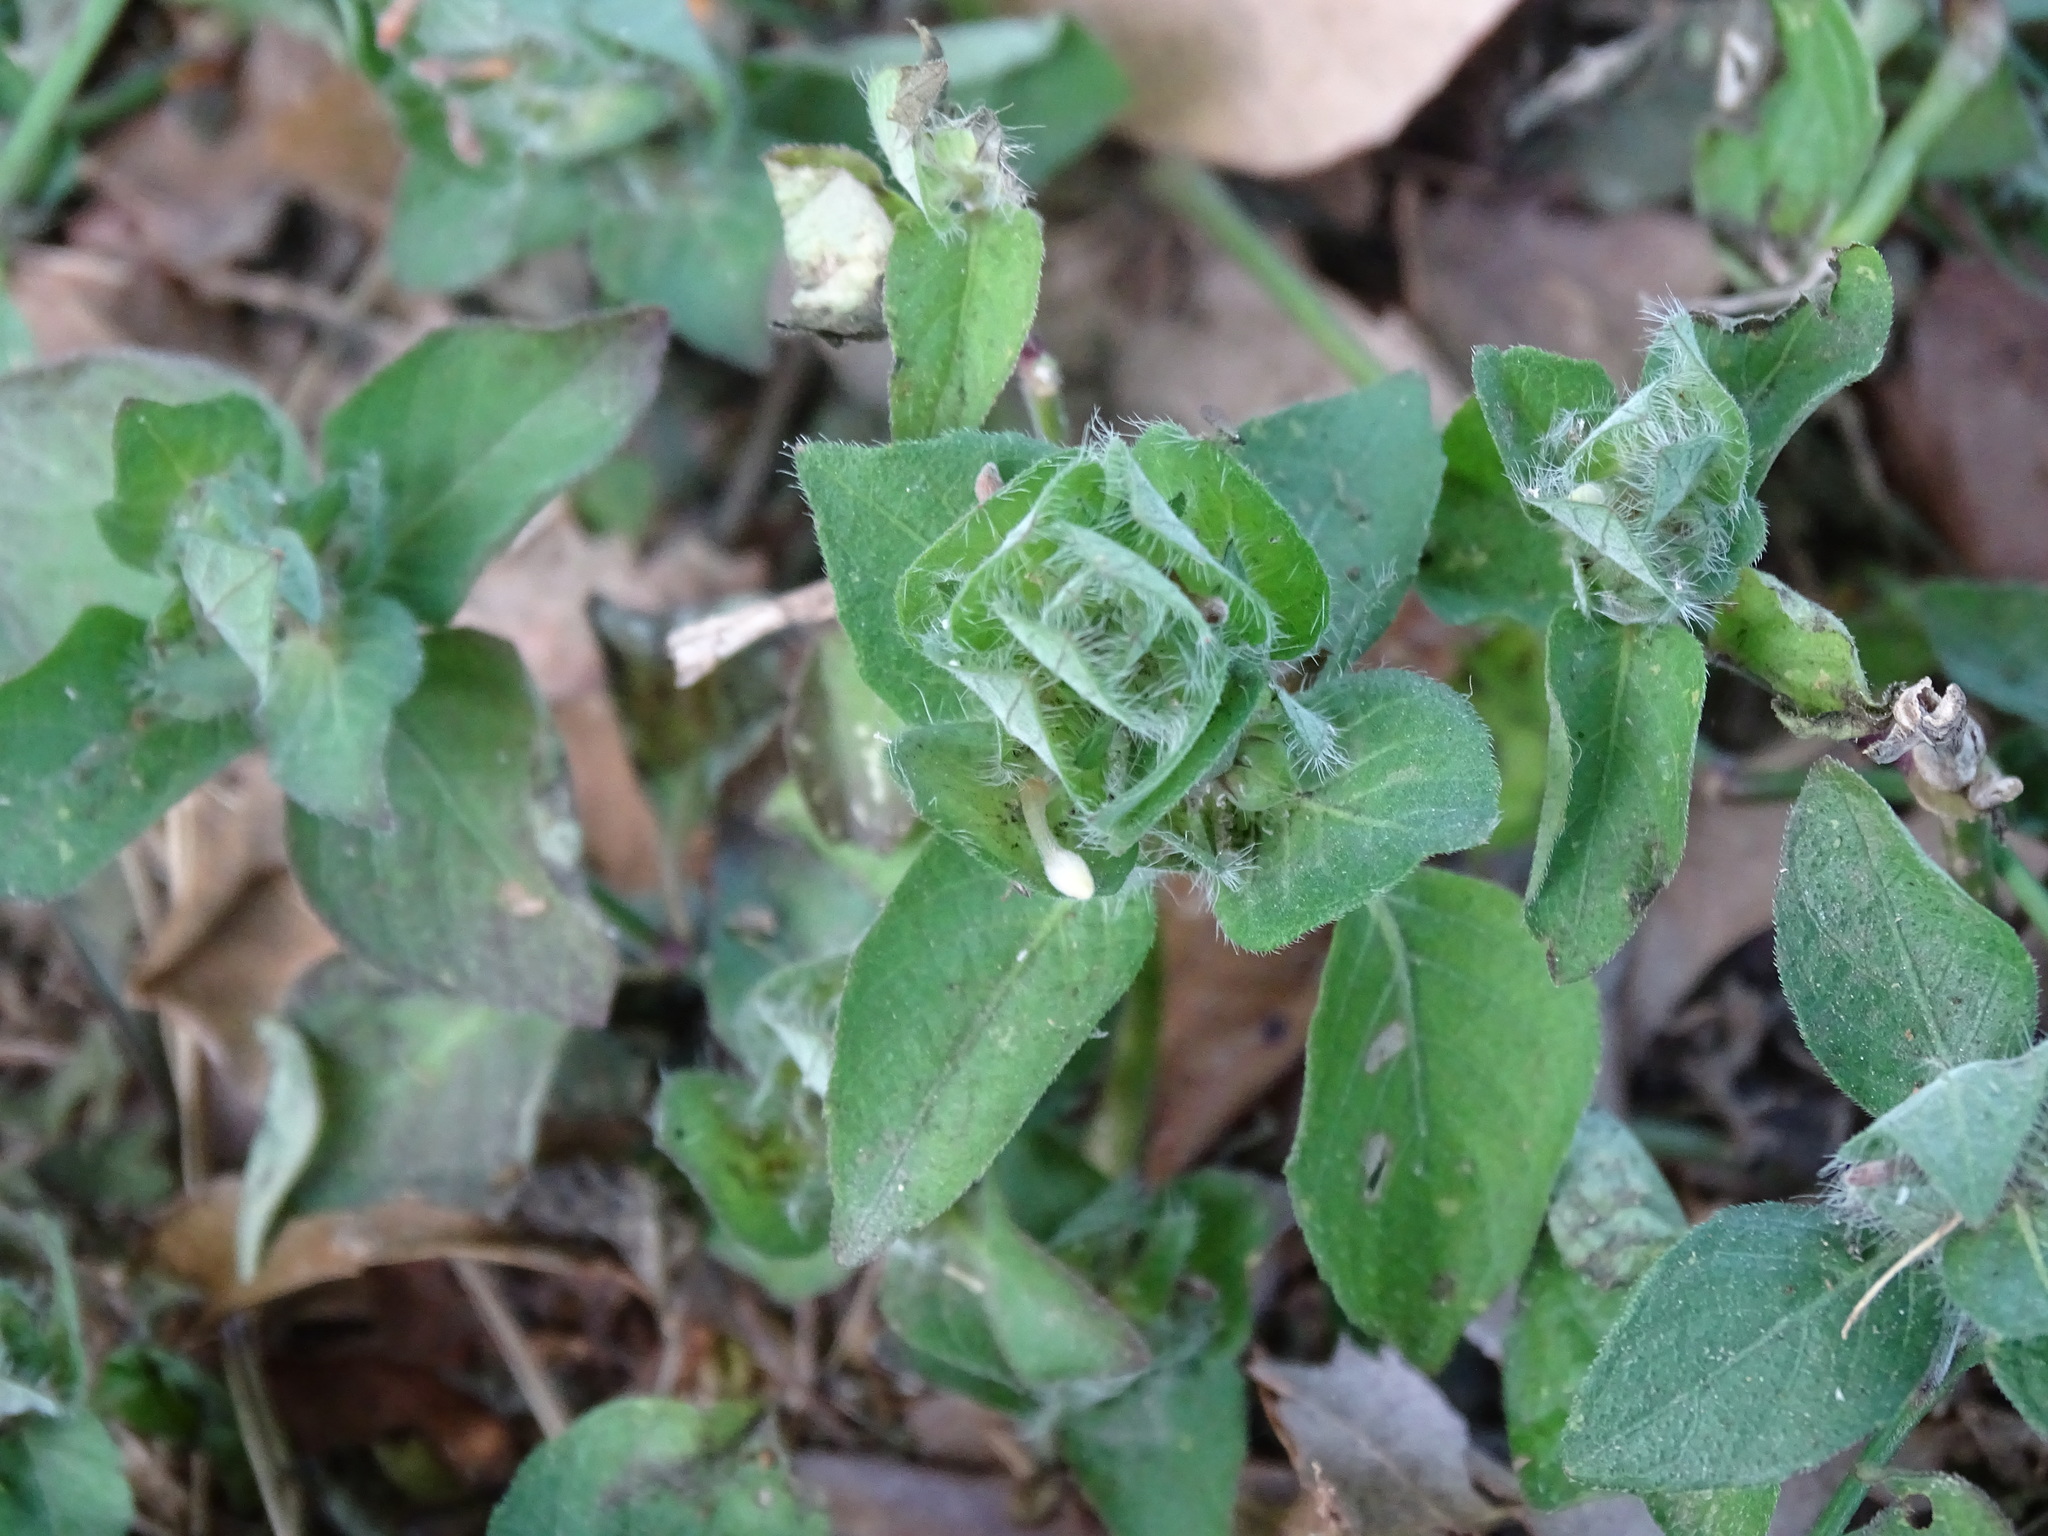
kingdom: Plantae
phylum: Tracheophyta
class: Magnoliopsida
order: Lamiales
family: Acanthaceae
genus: Ruellia
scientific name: Ruellia blechum
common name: Browne's blechum
